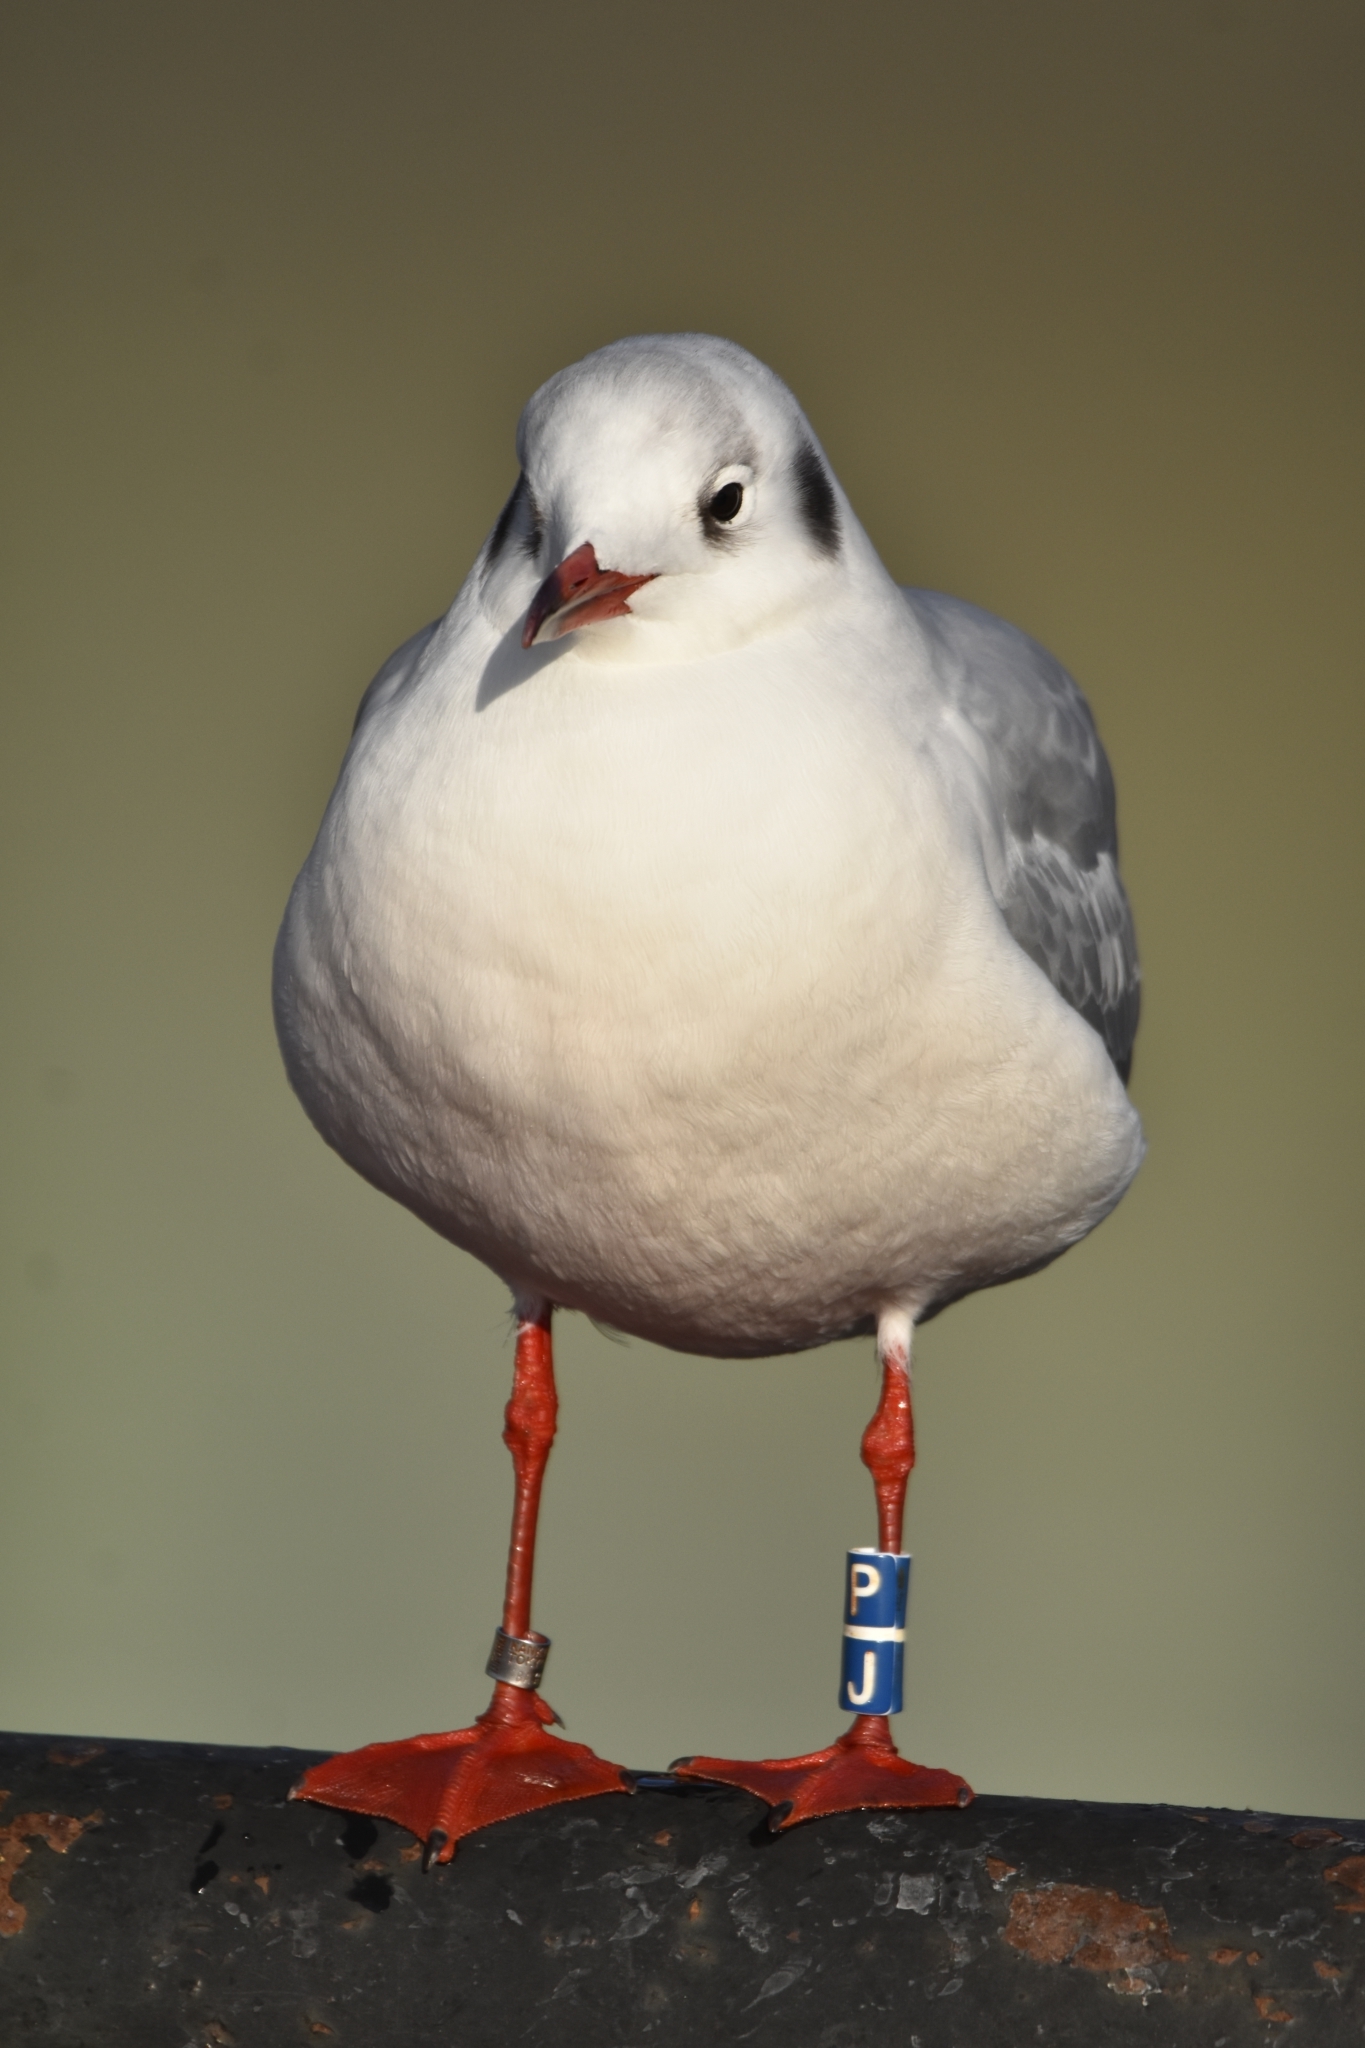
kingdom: Animalia
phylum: Chordata
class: Aves
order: Charadriiformes
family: Laridae
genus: Chroicocephalus
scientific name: Chroicocephalus ridibundus
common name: Black-headed gull
